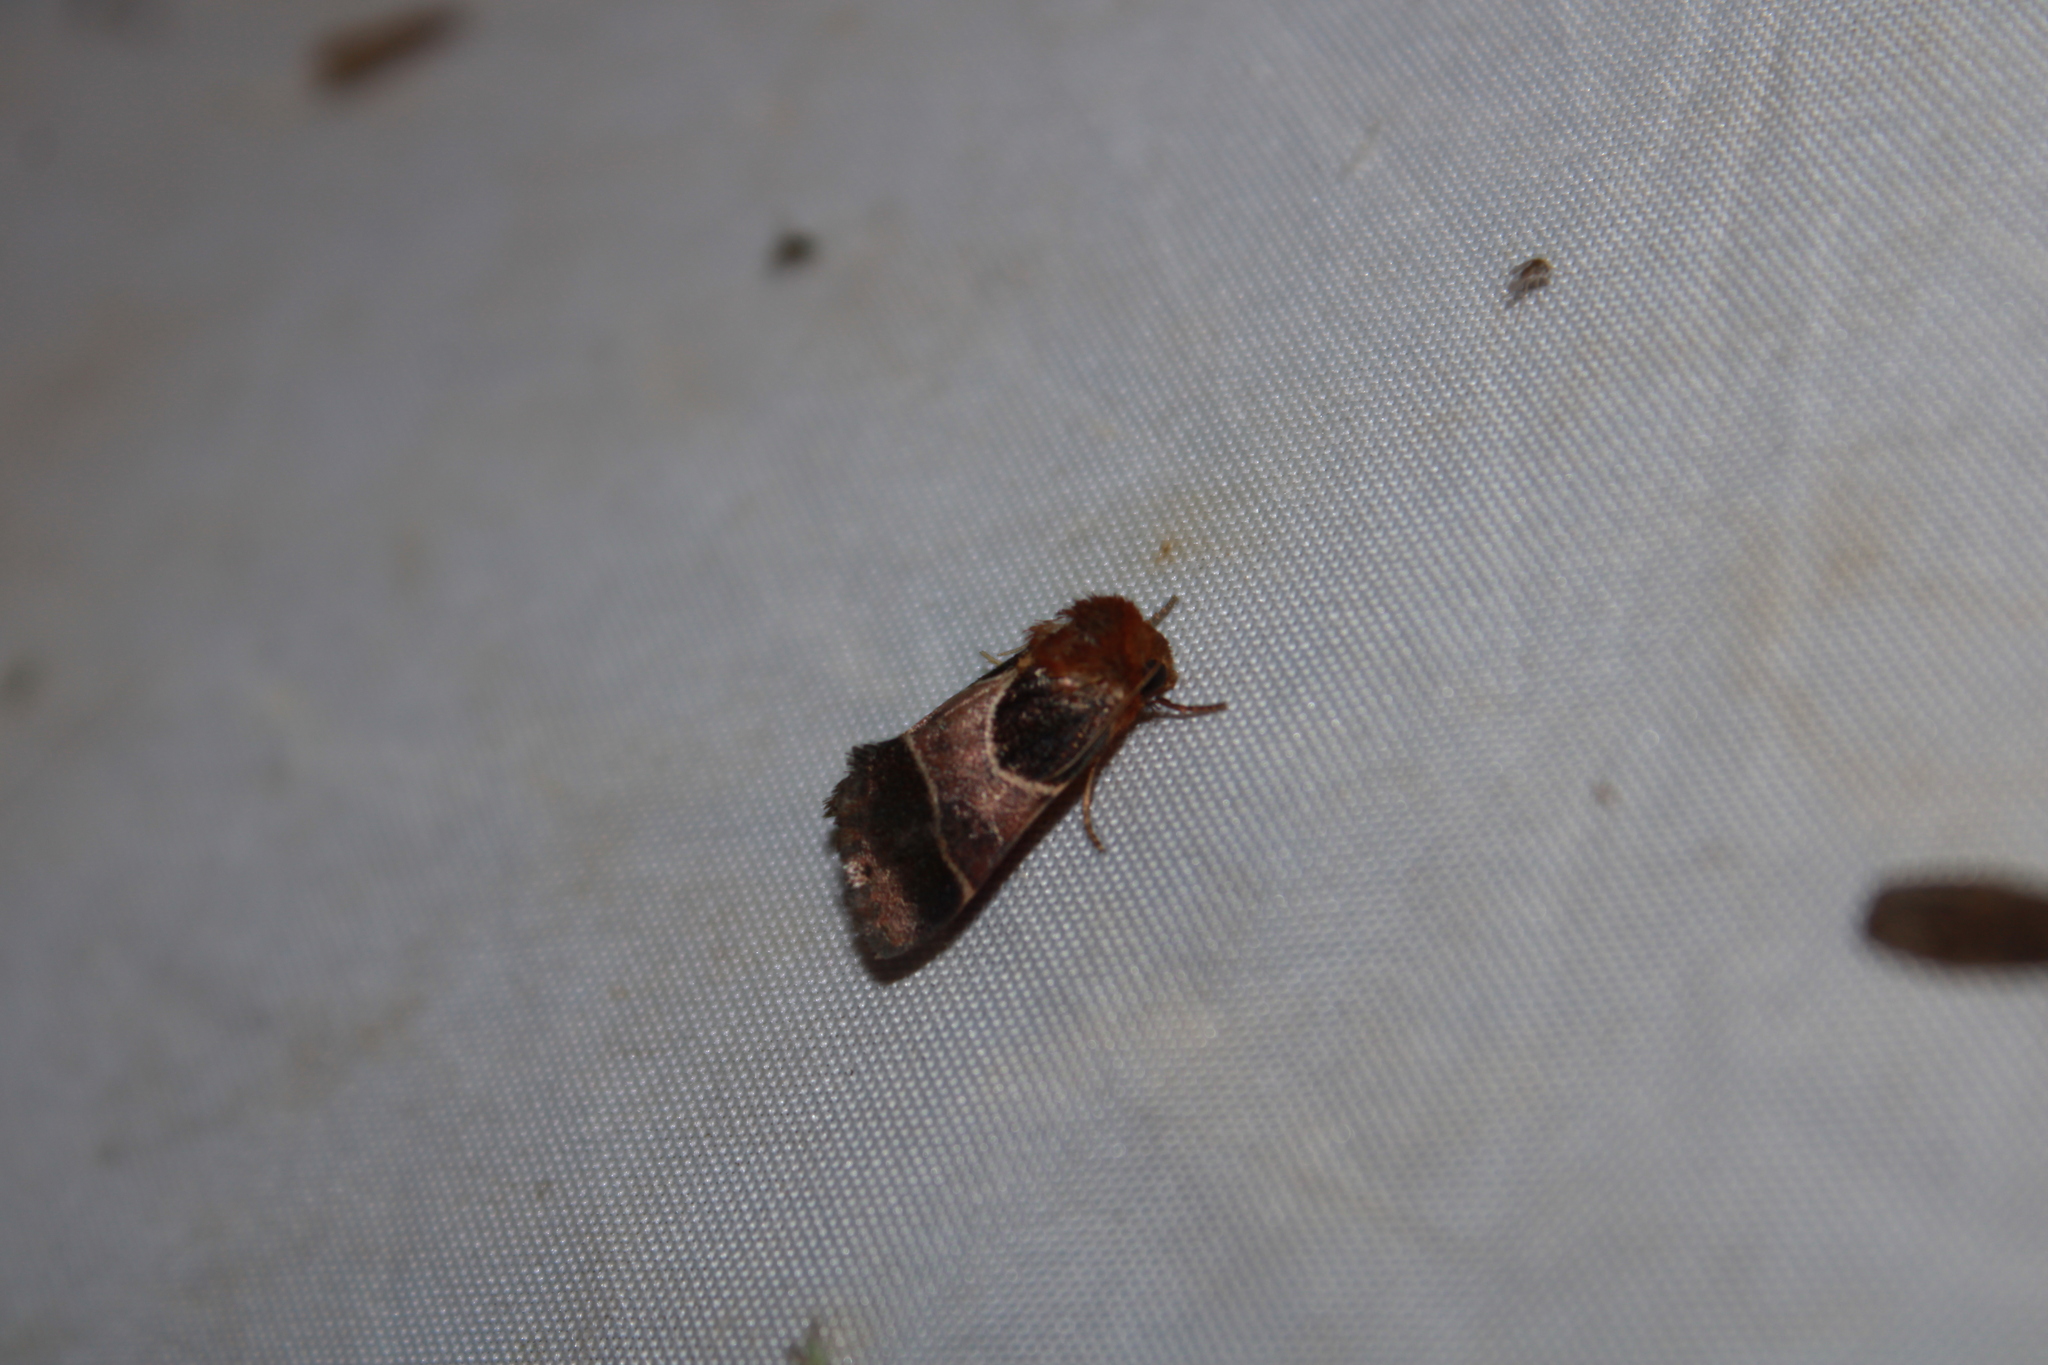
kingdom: Animalia
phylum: Arthropoda
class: Insecta
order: Lepidoptera
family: Noctuidae
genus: Schinia
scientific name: Schinia arcigera
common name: Arcigera flower moth
